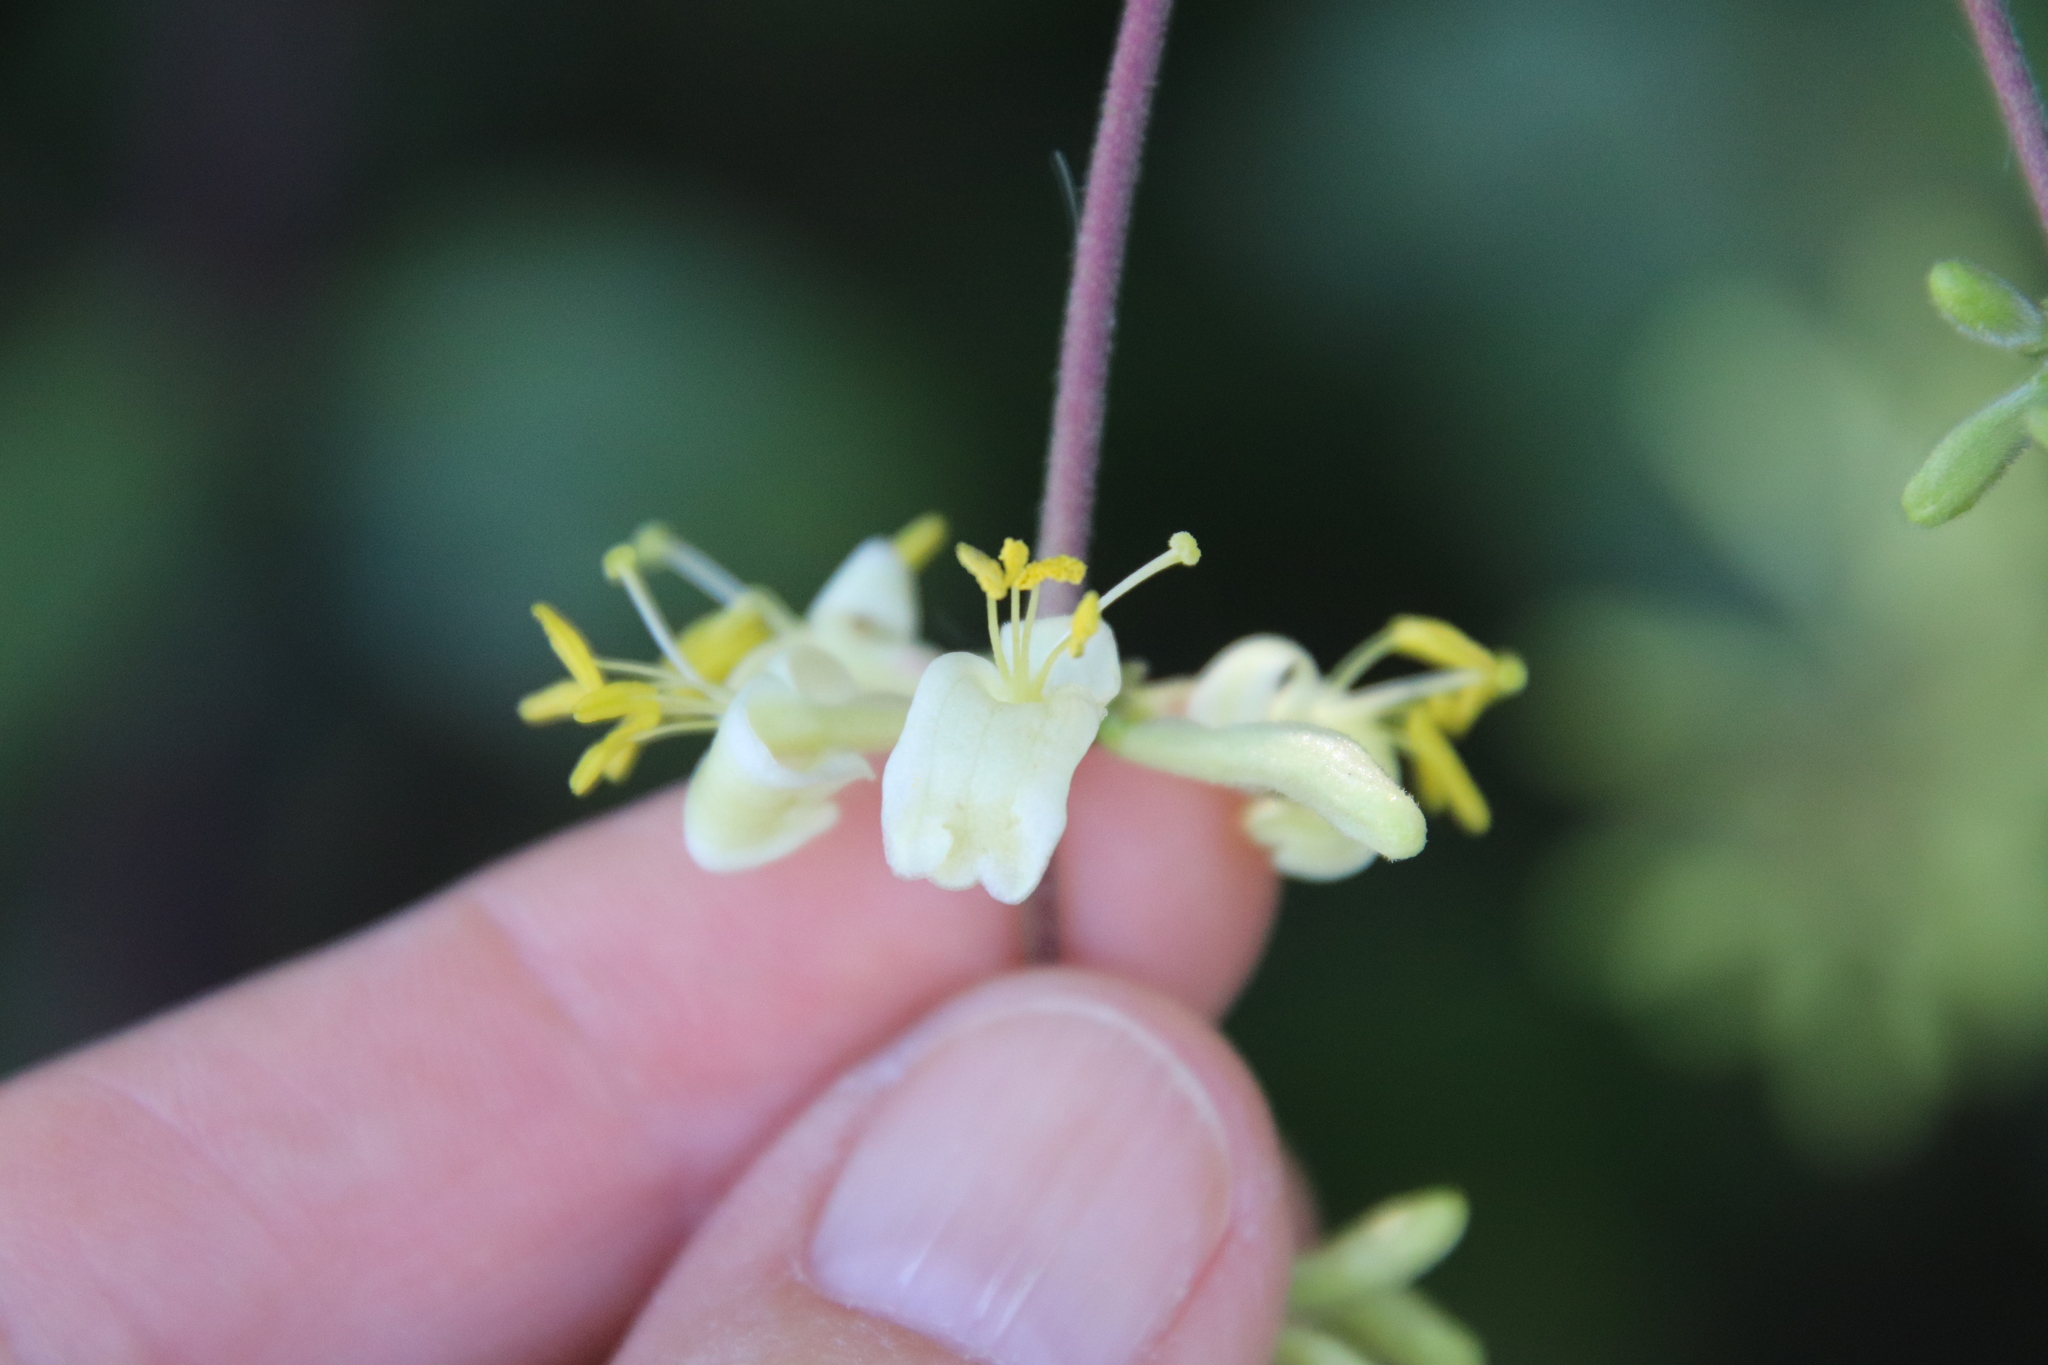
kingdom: Plantae
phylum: Tracheophyta
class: Magnoliopsida
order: Dipsacales
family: Caprifoliaceae
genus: Lonicera
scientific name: Lonicera subspicata
